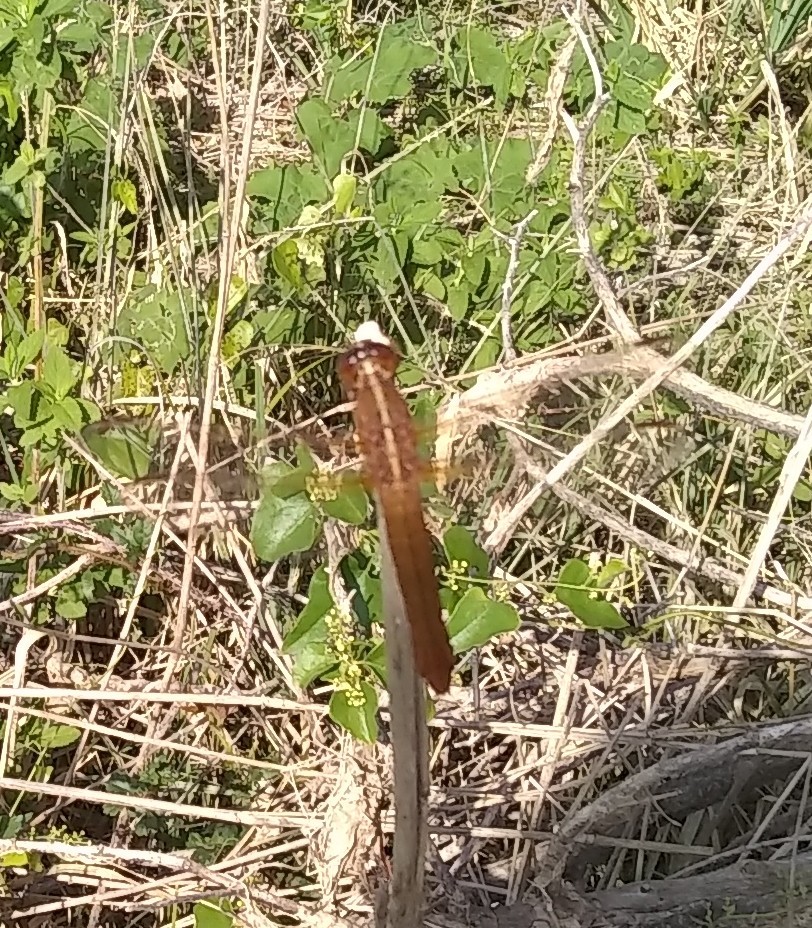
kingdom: Animalia
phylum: Arthropoda
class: Insecta
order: Odonata
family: Libellulidae
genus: Libellula
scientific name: Libellula croceipennis
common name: Neon skimmer
